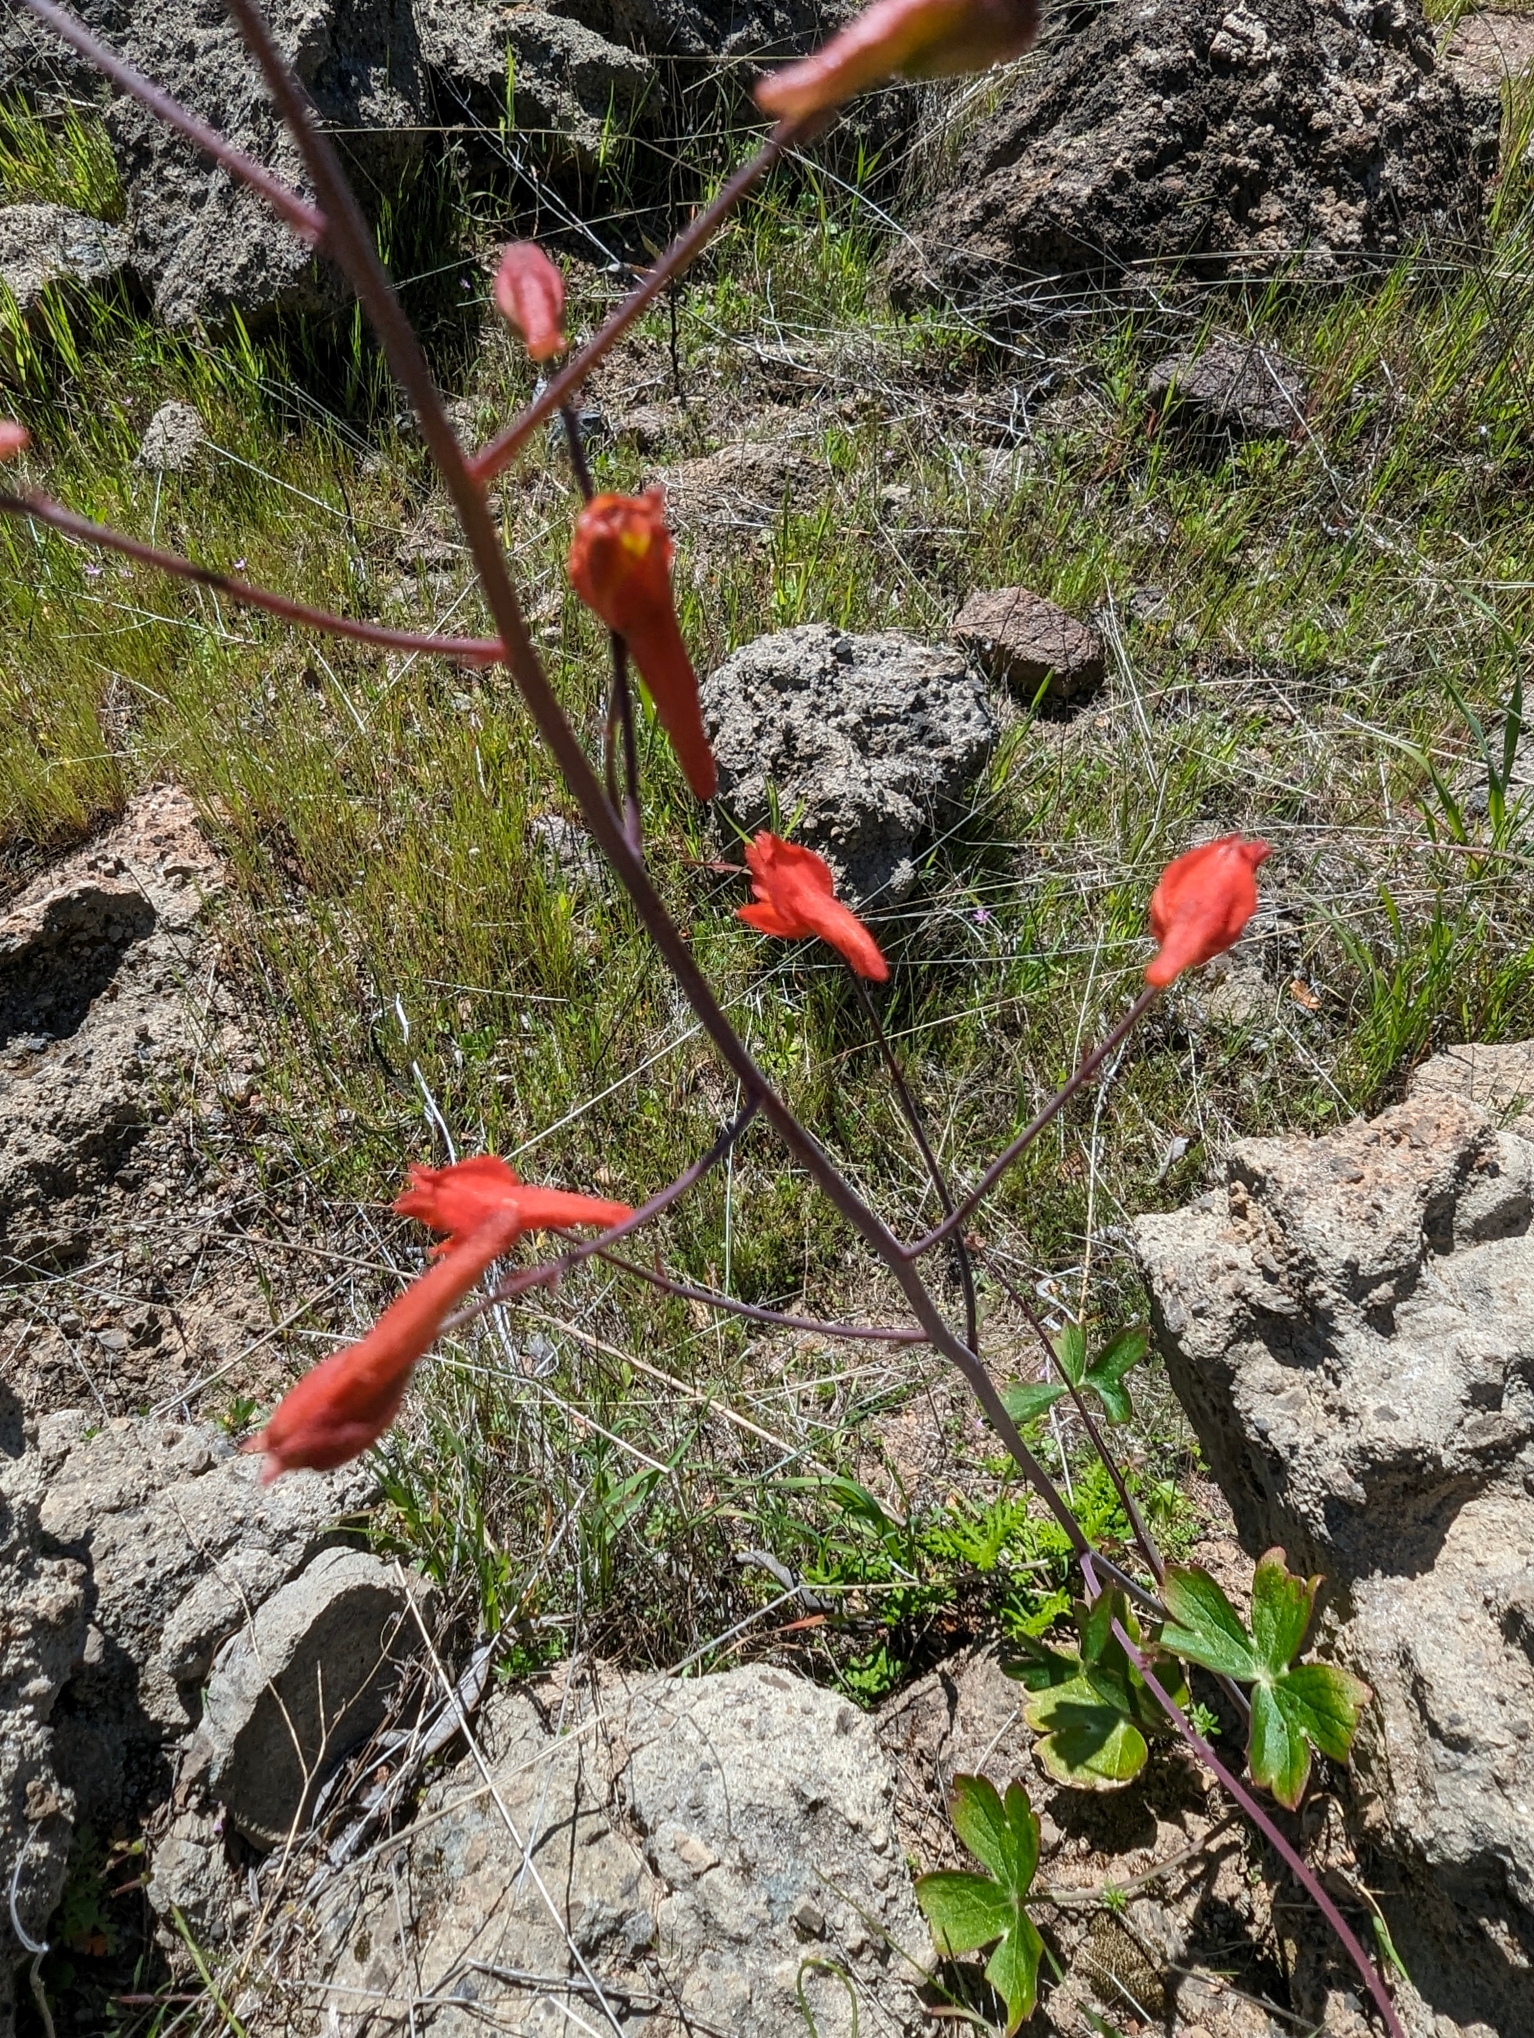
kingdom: Plantae
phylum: Tracheophyta
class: Magnoliopsida
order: Ranunculales
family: Ranunculaceae
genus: Delphinium
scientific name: Delphinium nudicaule
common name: Red larkspur
